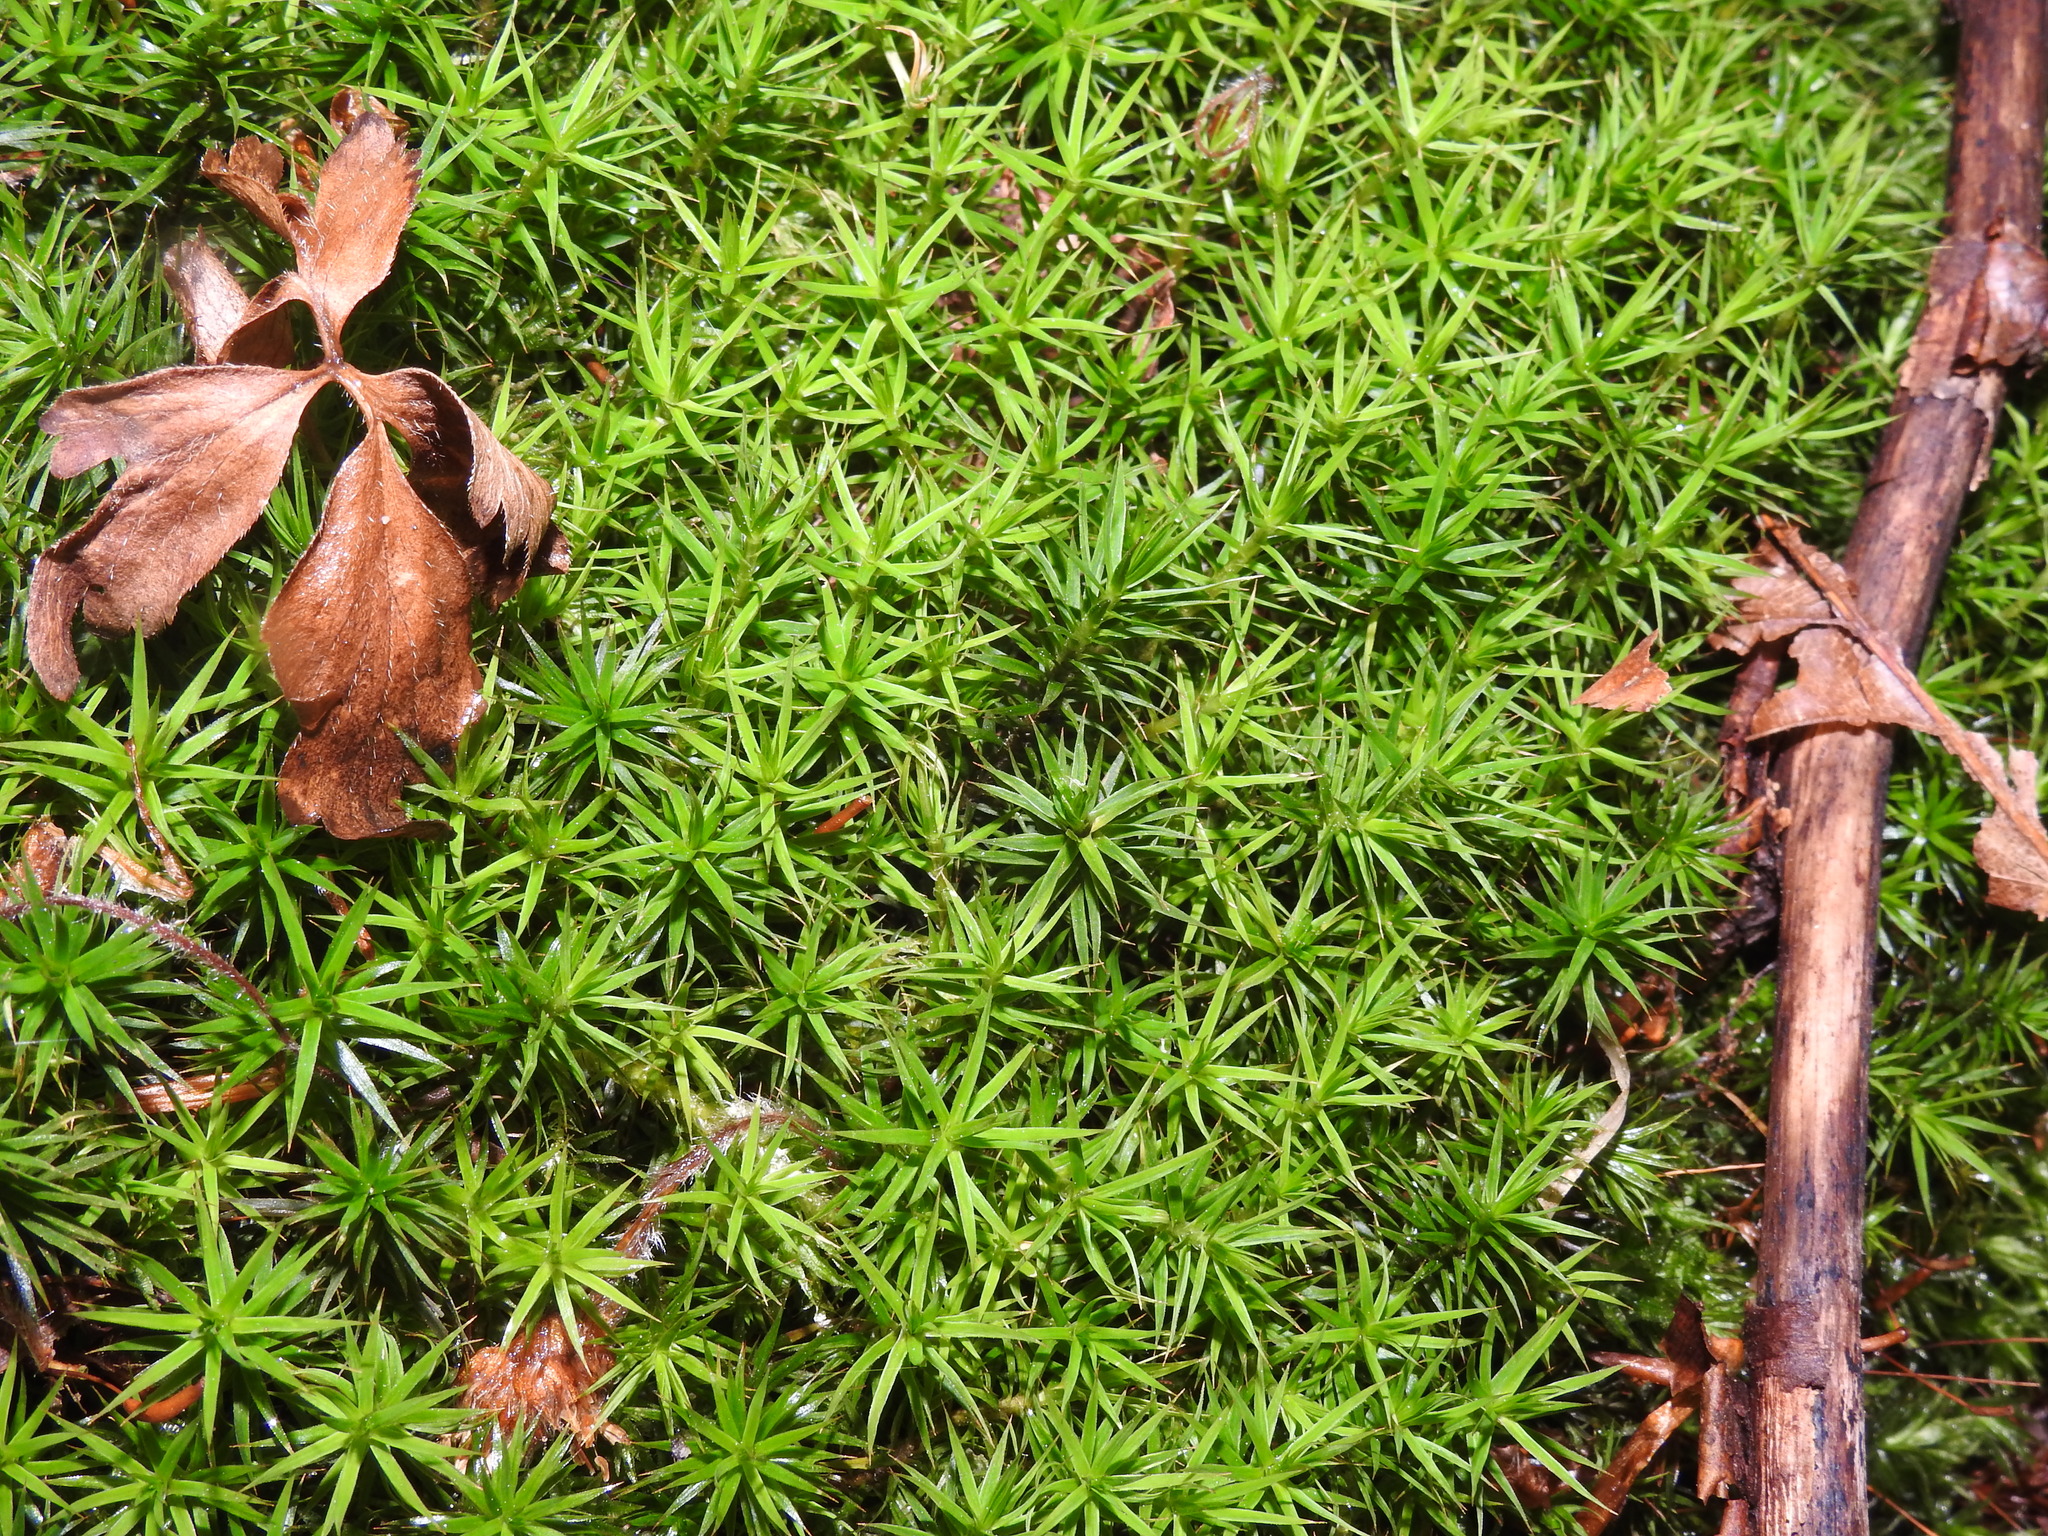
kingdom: Plantae
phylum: Bryophyta
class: Polytrichopsida
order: Polytrichales
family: Polytrichaceae
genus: Polytrichum
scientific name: Polytrichum formosum
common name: Bank haircap moss
